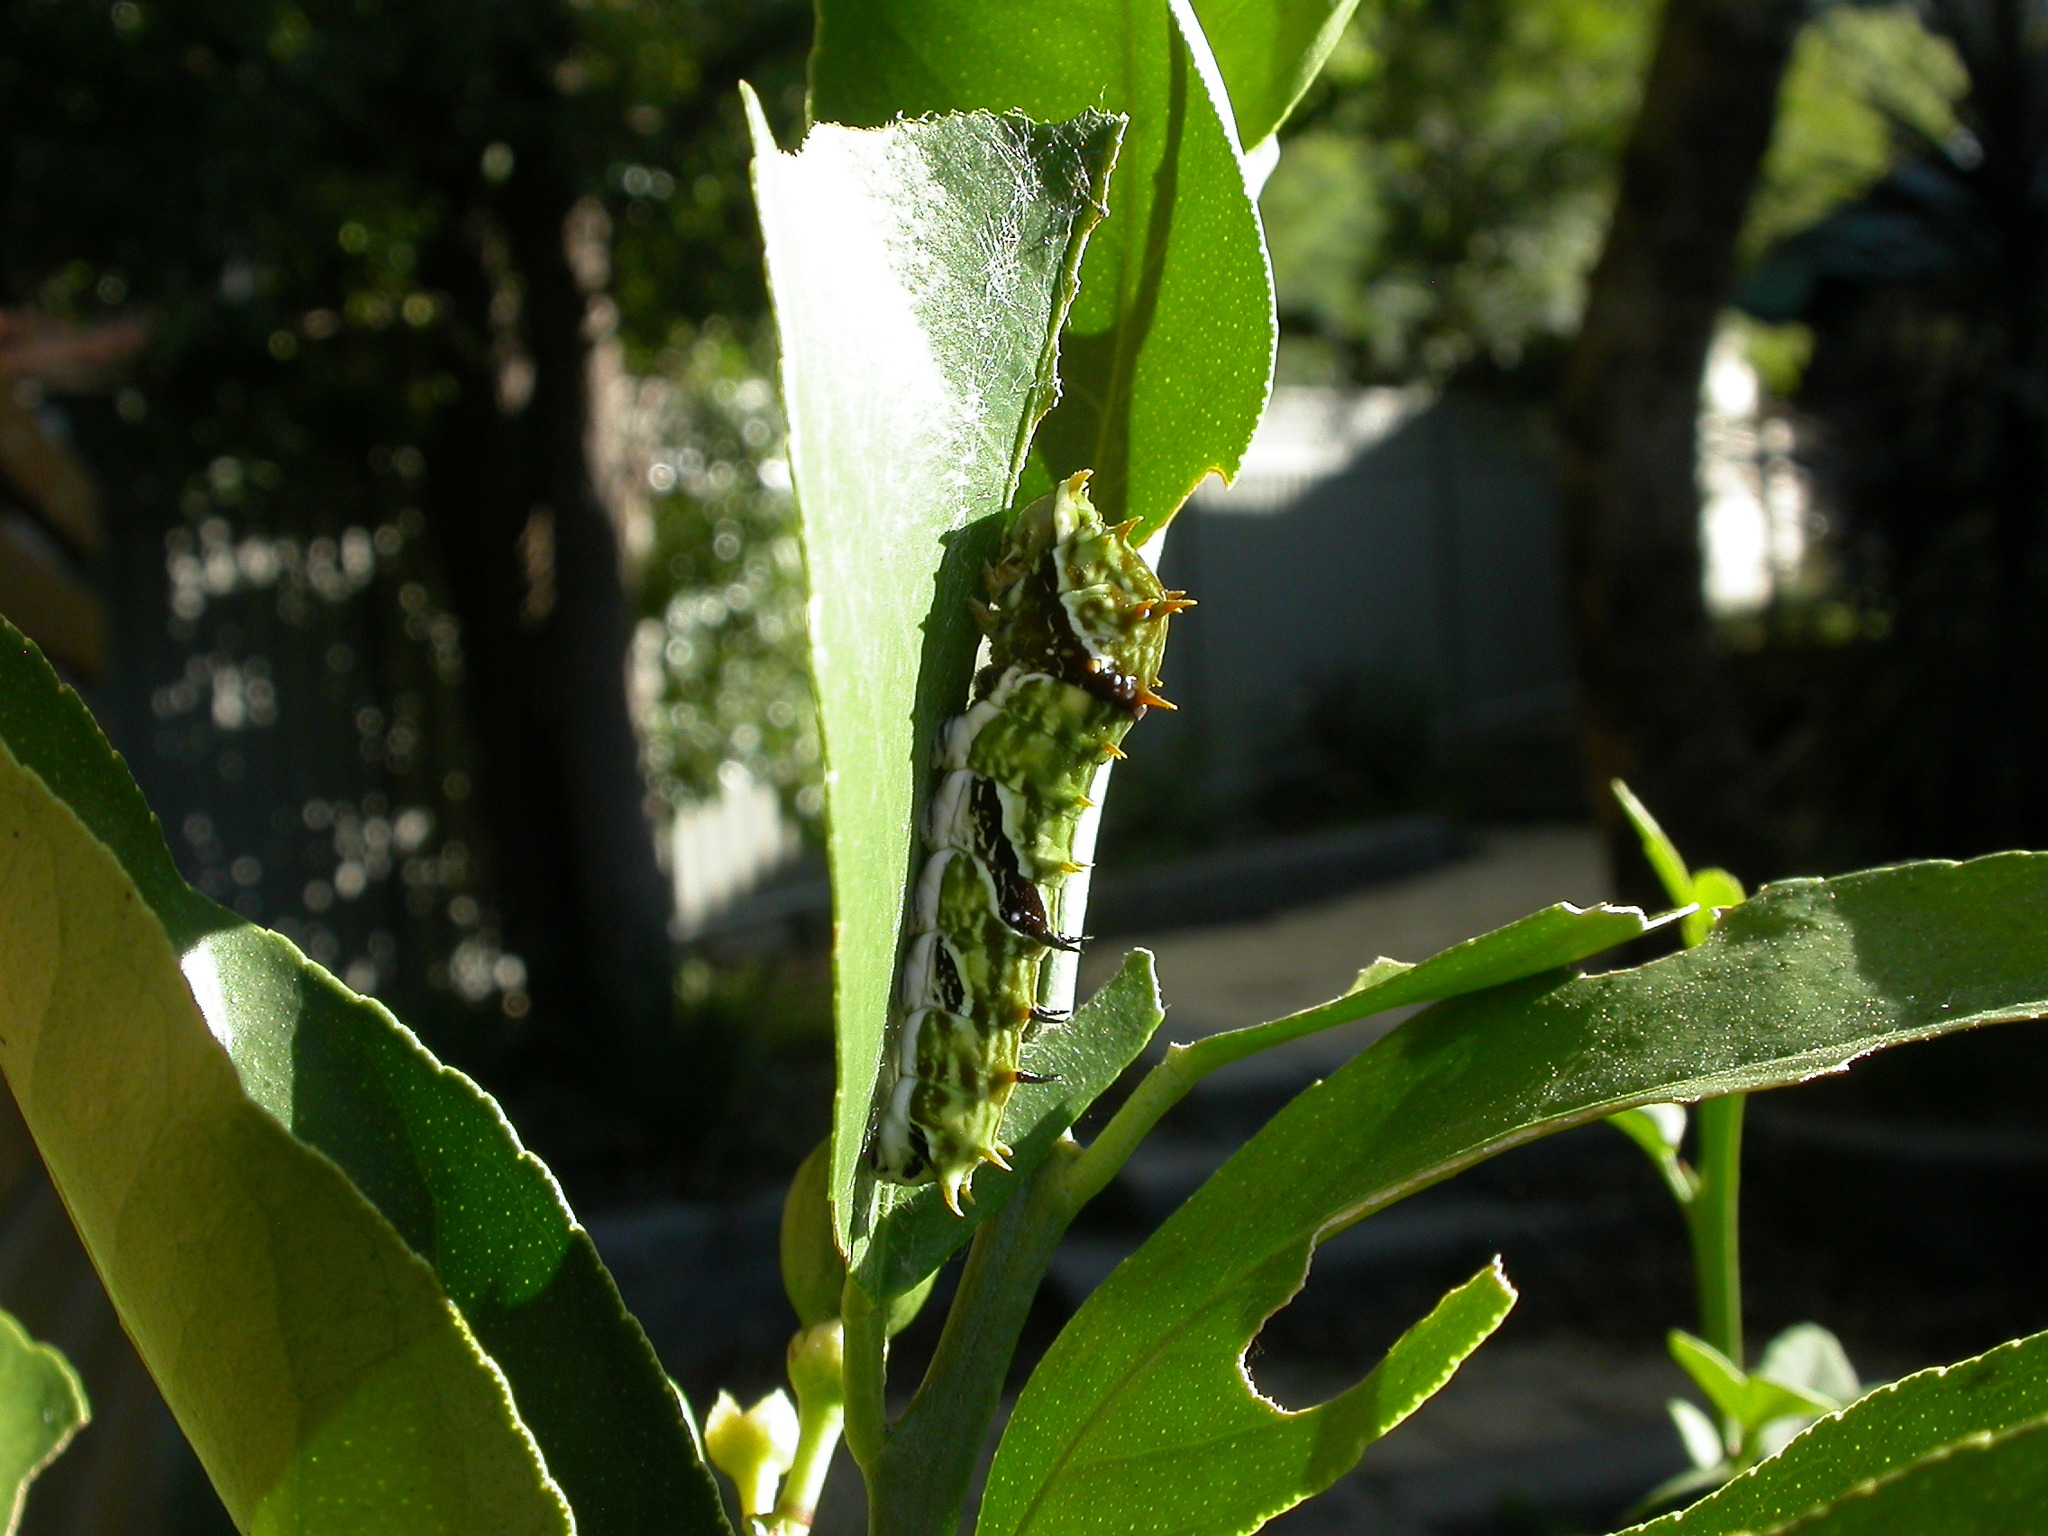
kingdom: Animalia
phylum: Arthropoda
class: Insecta
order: Lepidoptera
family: Papilionidae
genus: Papilio
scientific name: Papilio aegeus
